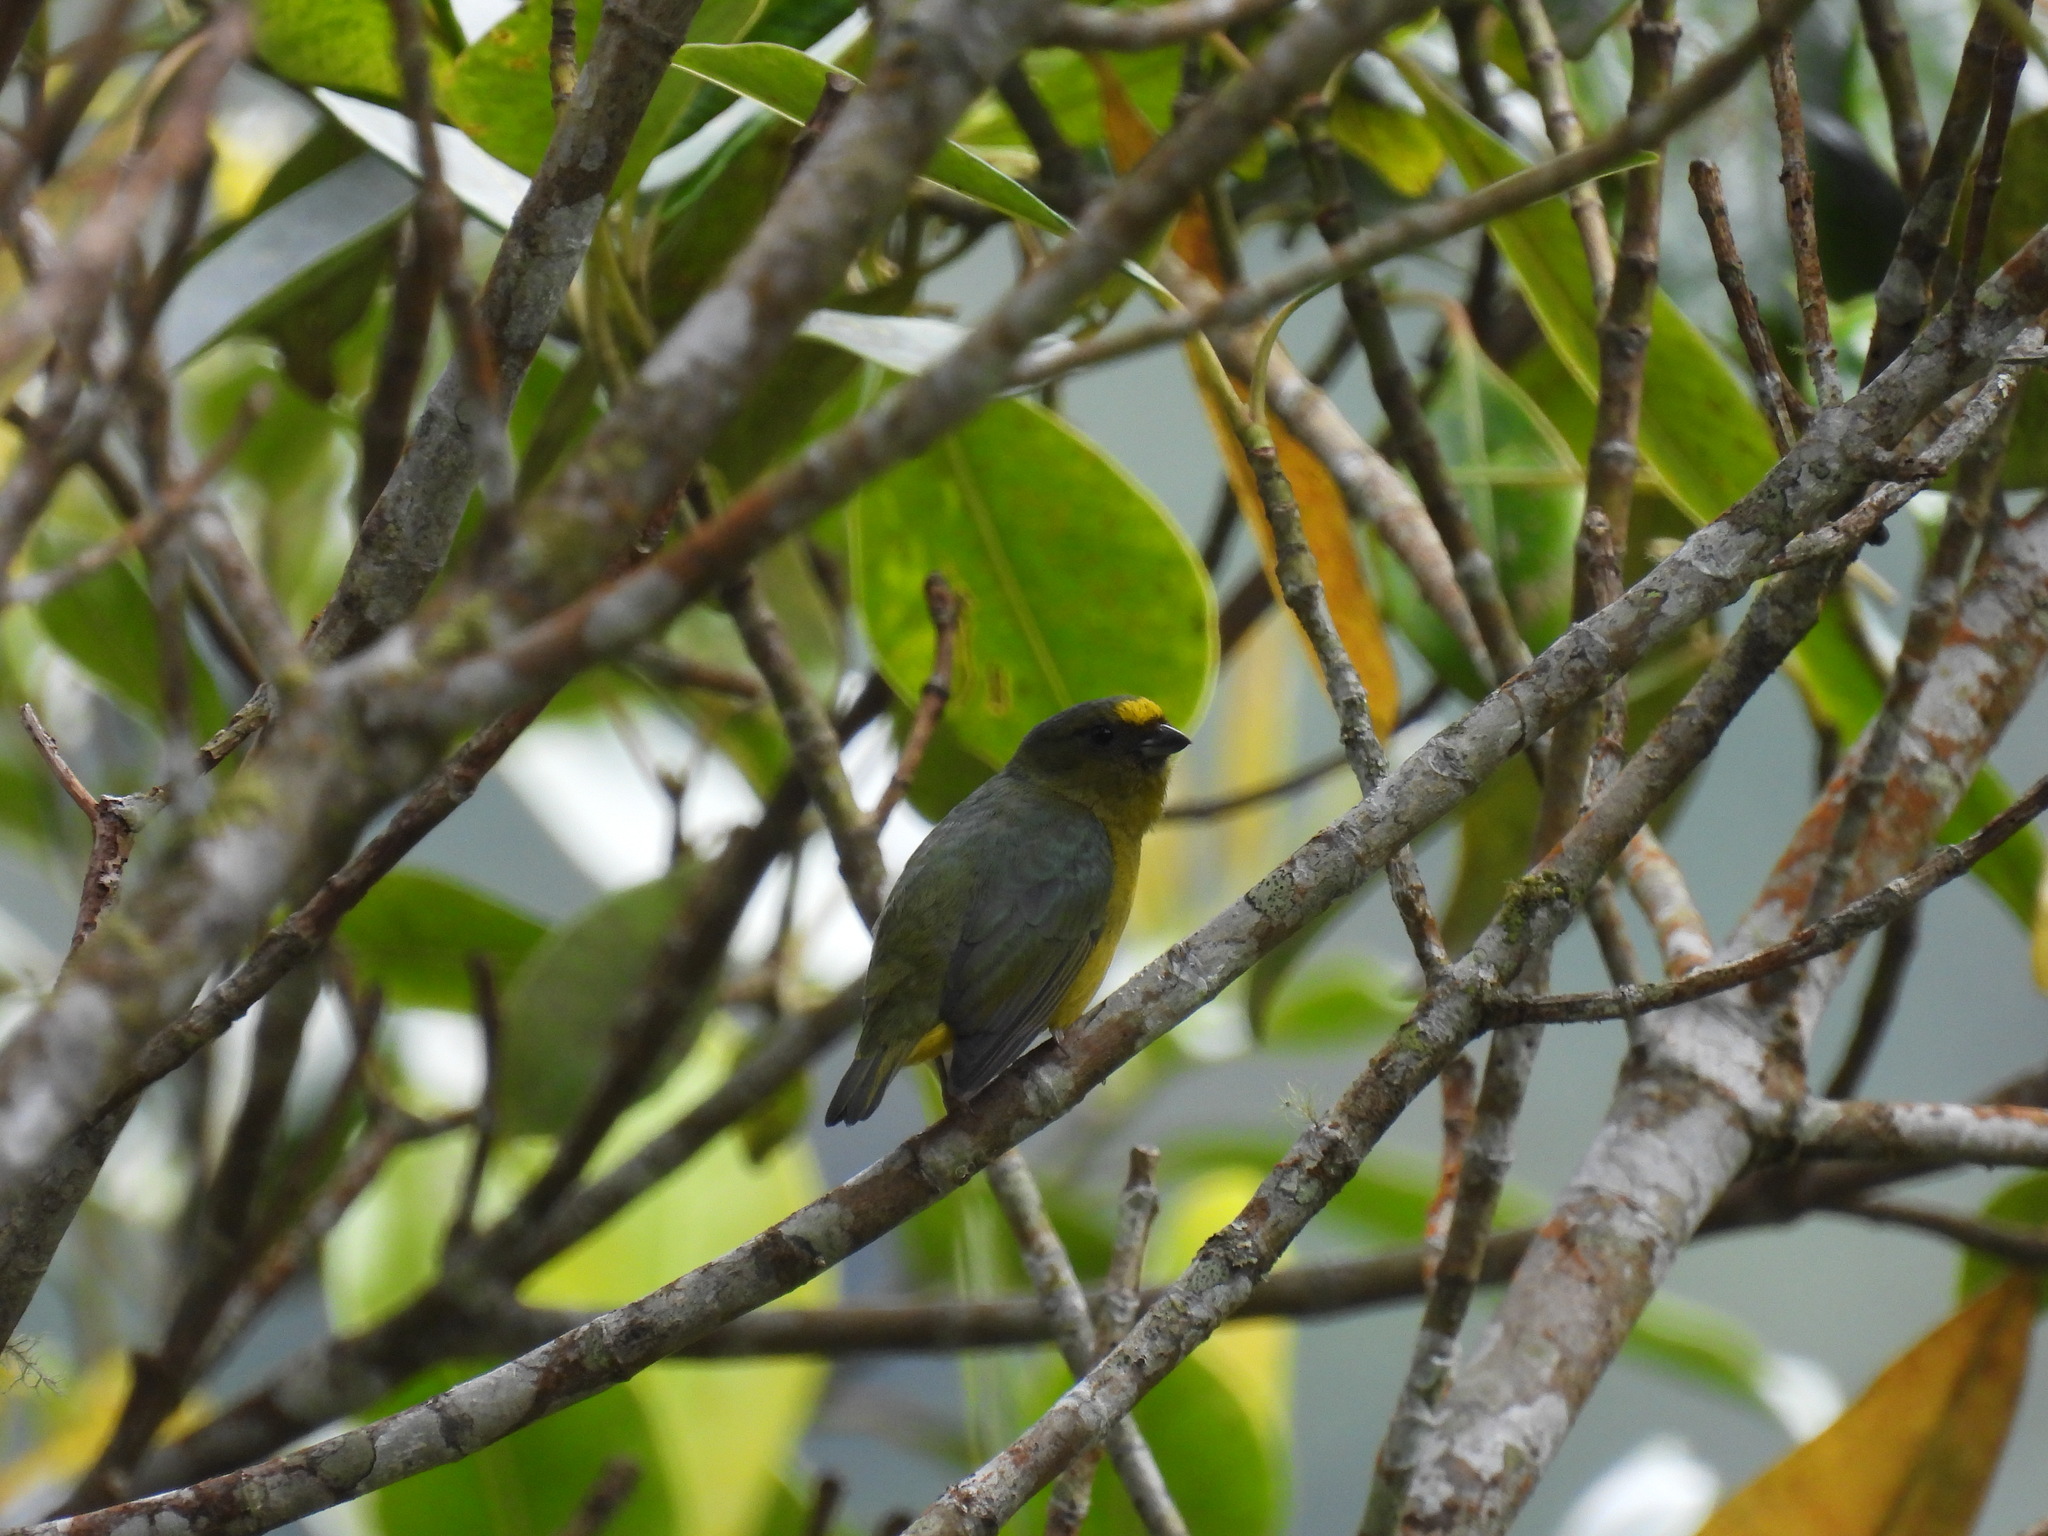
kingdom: Animalia
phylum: Chordata
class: Aves
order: Passeriformes
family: Fringillidae
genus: Euphonia
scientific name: Euphonia mesochrysa
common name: Bronze-green euphonia
